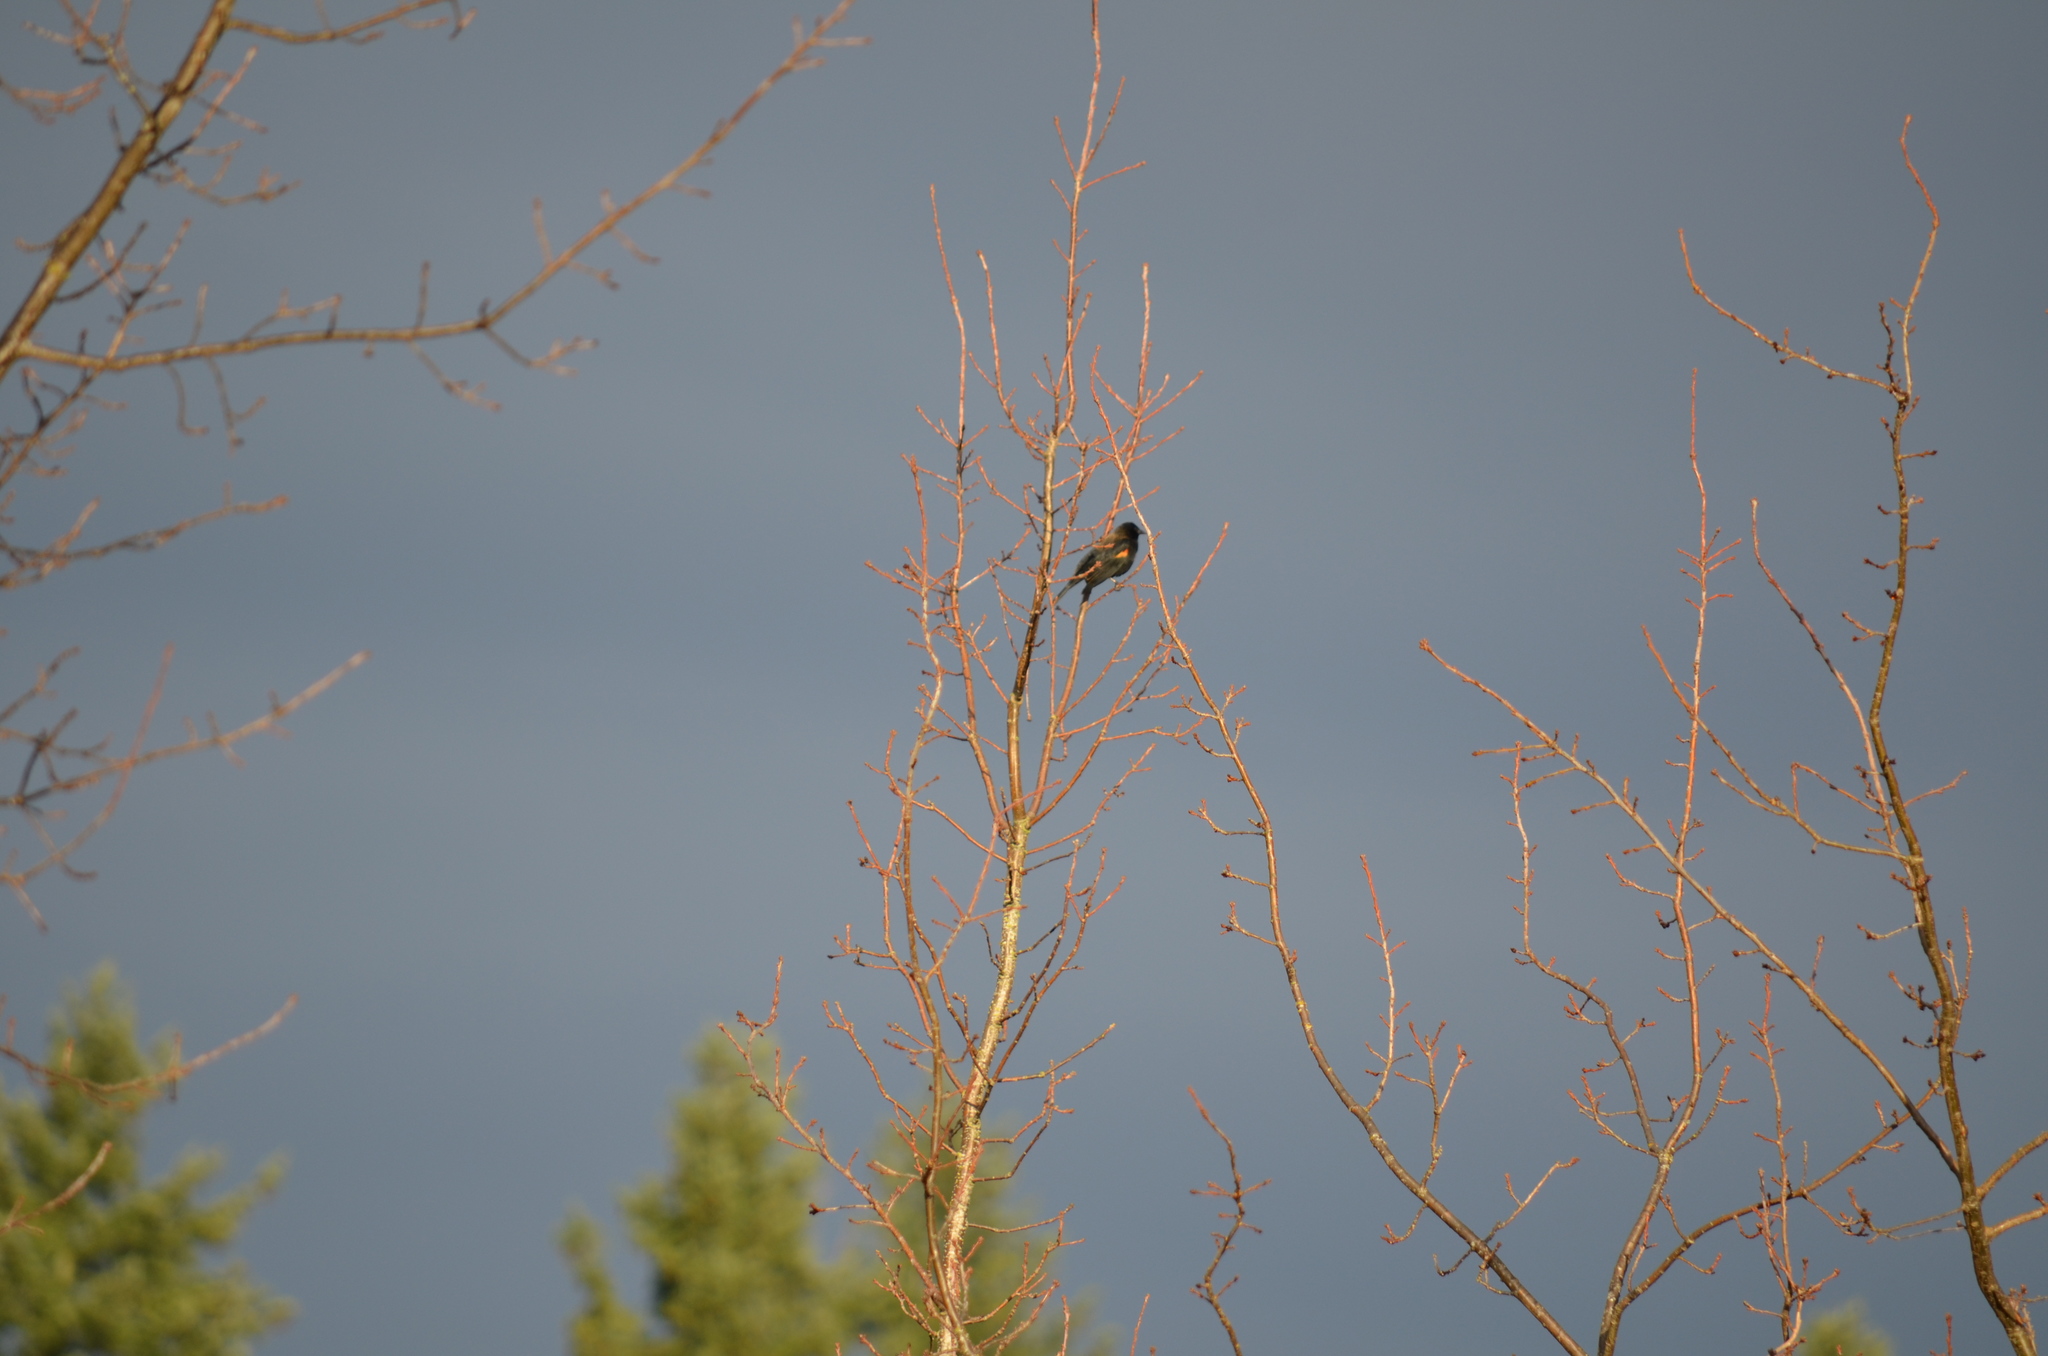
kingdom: Animalia
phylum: Chordata
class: Aves
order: Passeriformes
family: Icteridae
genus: Agelaius
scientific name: Agelaius phoeniceus
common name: Red-winged blackbird
